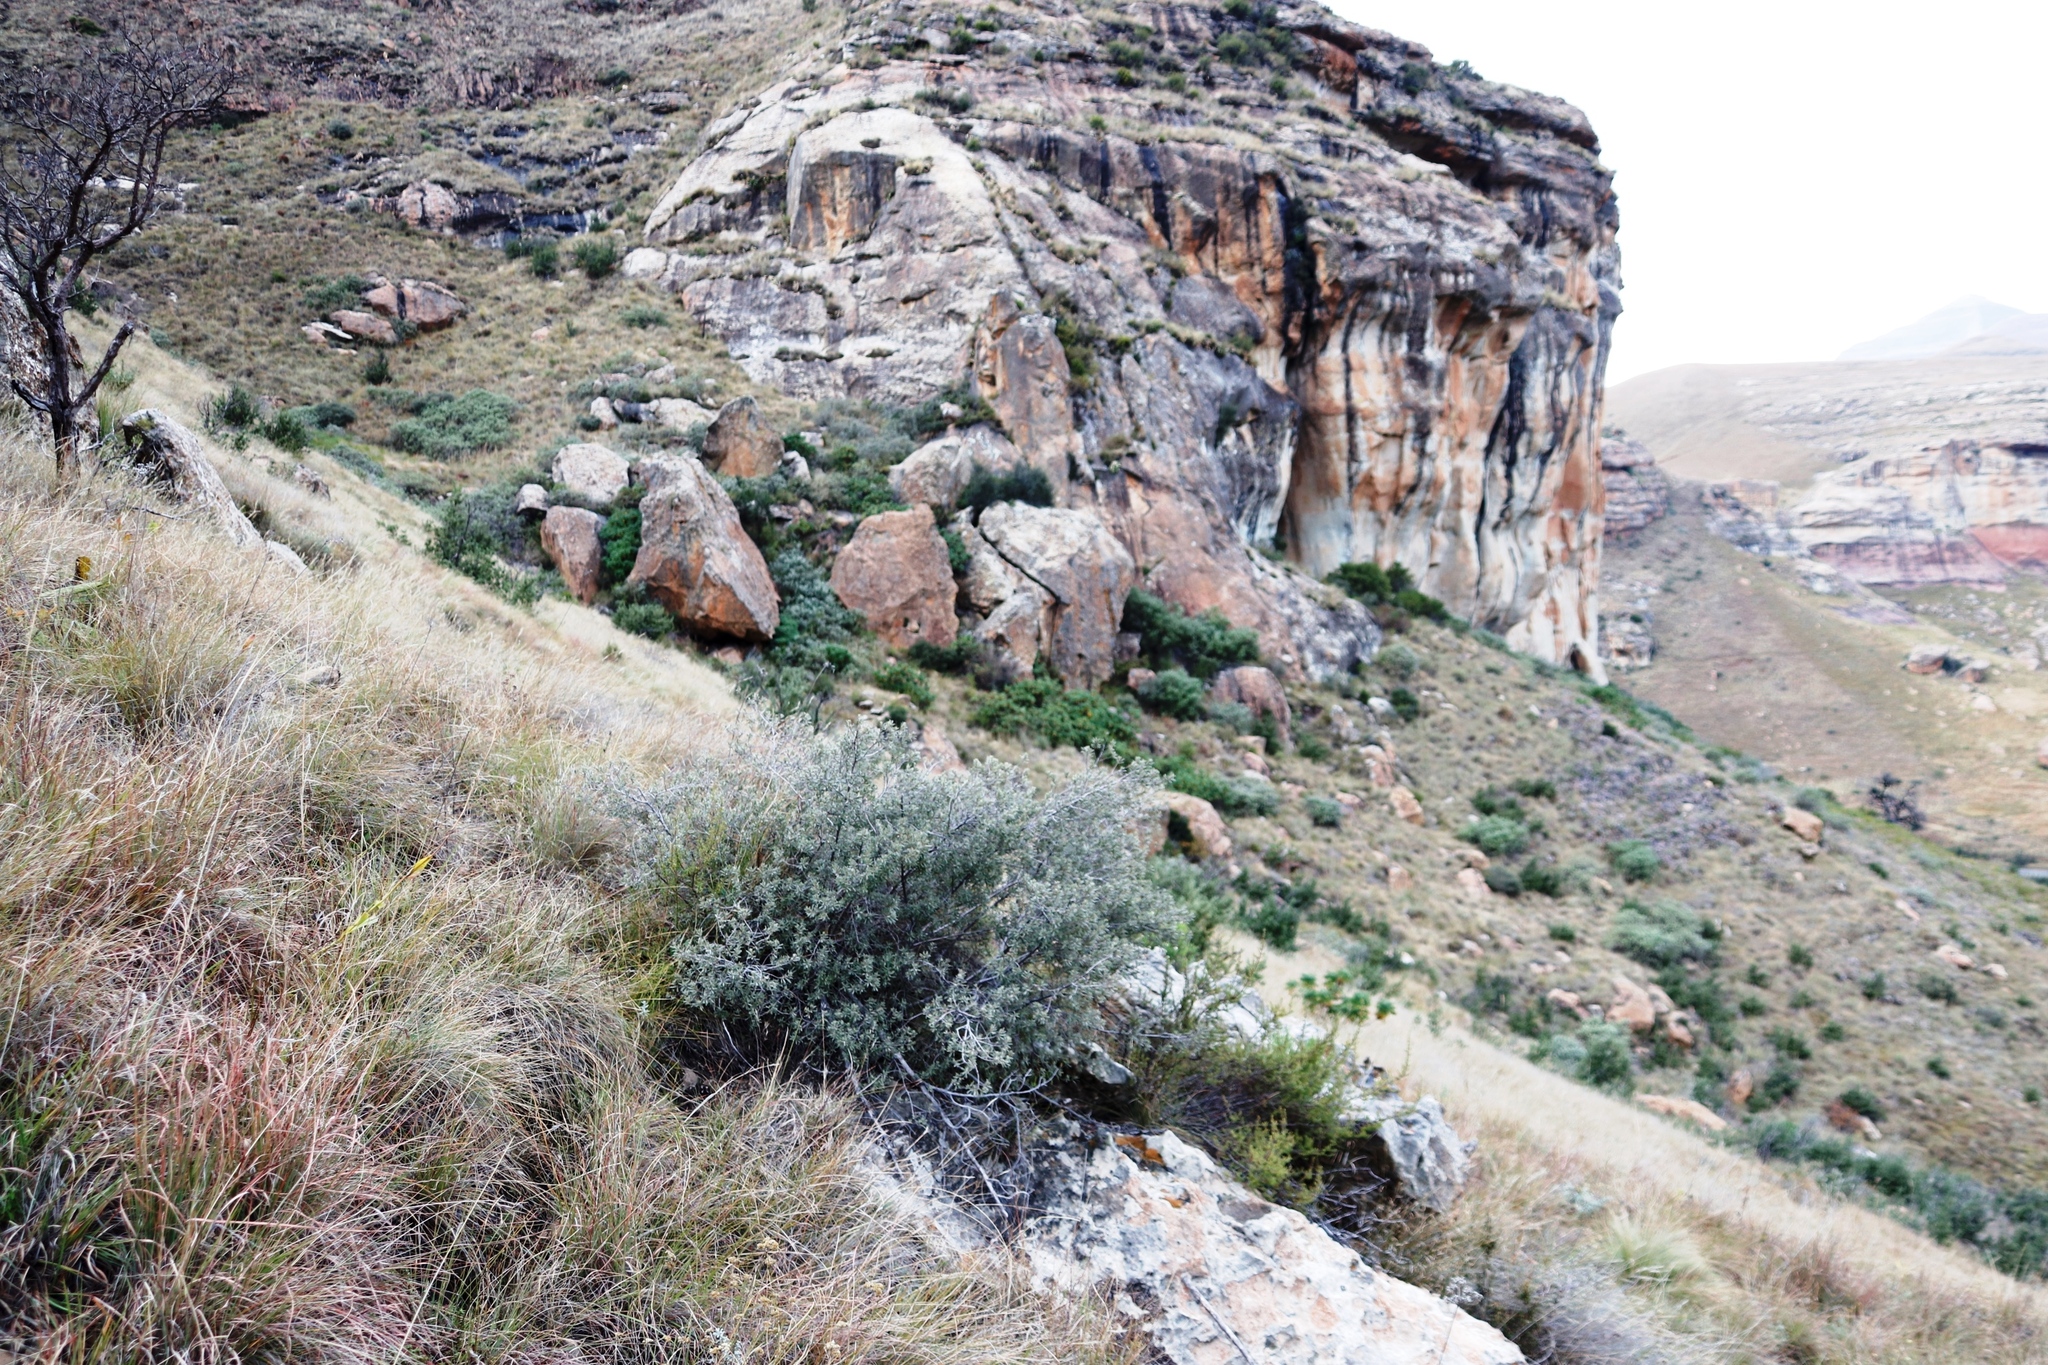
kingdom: Plantae
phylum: Tracheophyta
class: Magnoliopsida
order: Ericales
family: Ebenaceae
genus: Diospyros
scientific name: Diospyros pubescens
